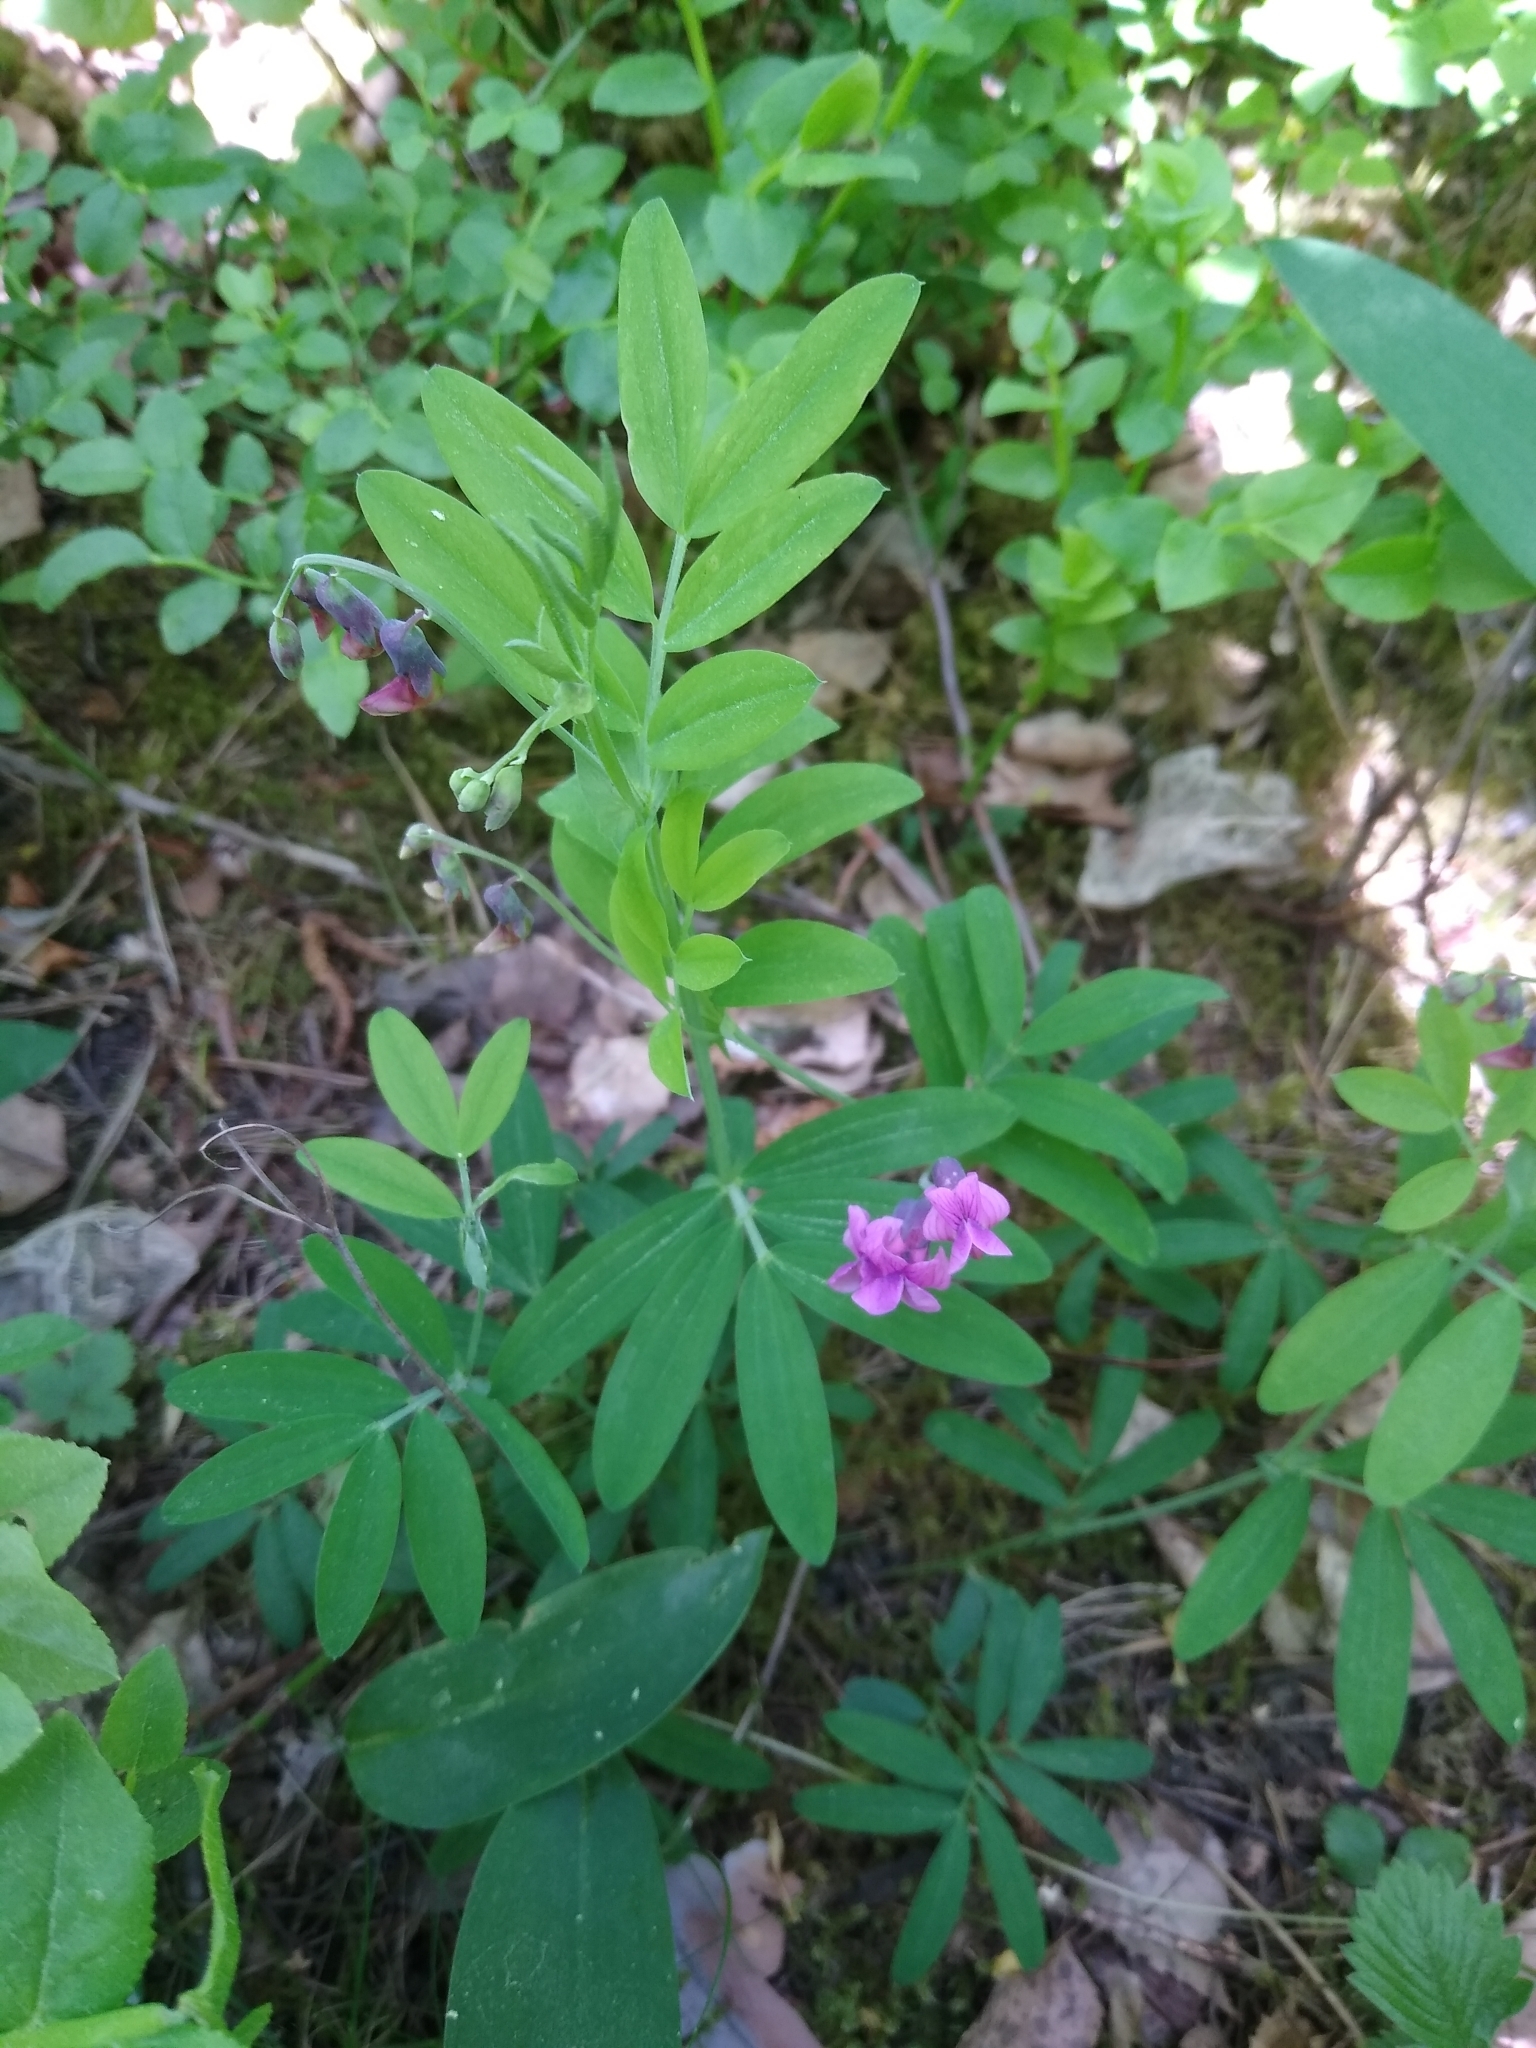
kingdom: Plantae
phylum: Tracheophyta
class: Magnoliopsida
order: Fabales
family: Fabaceae
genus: Lathyrus
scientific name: Lathyrus linifolius
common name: Bitter-vetch
